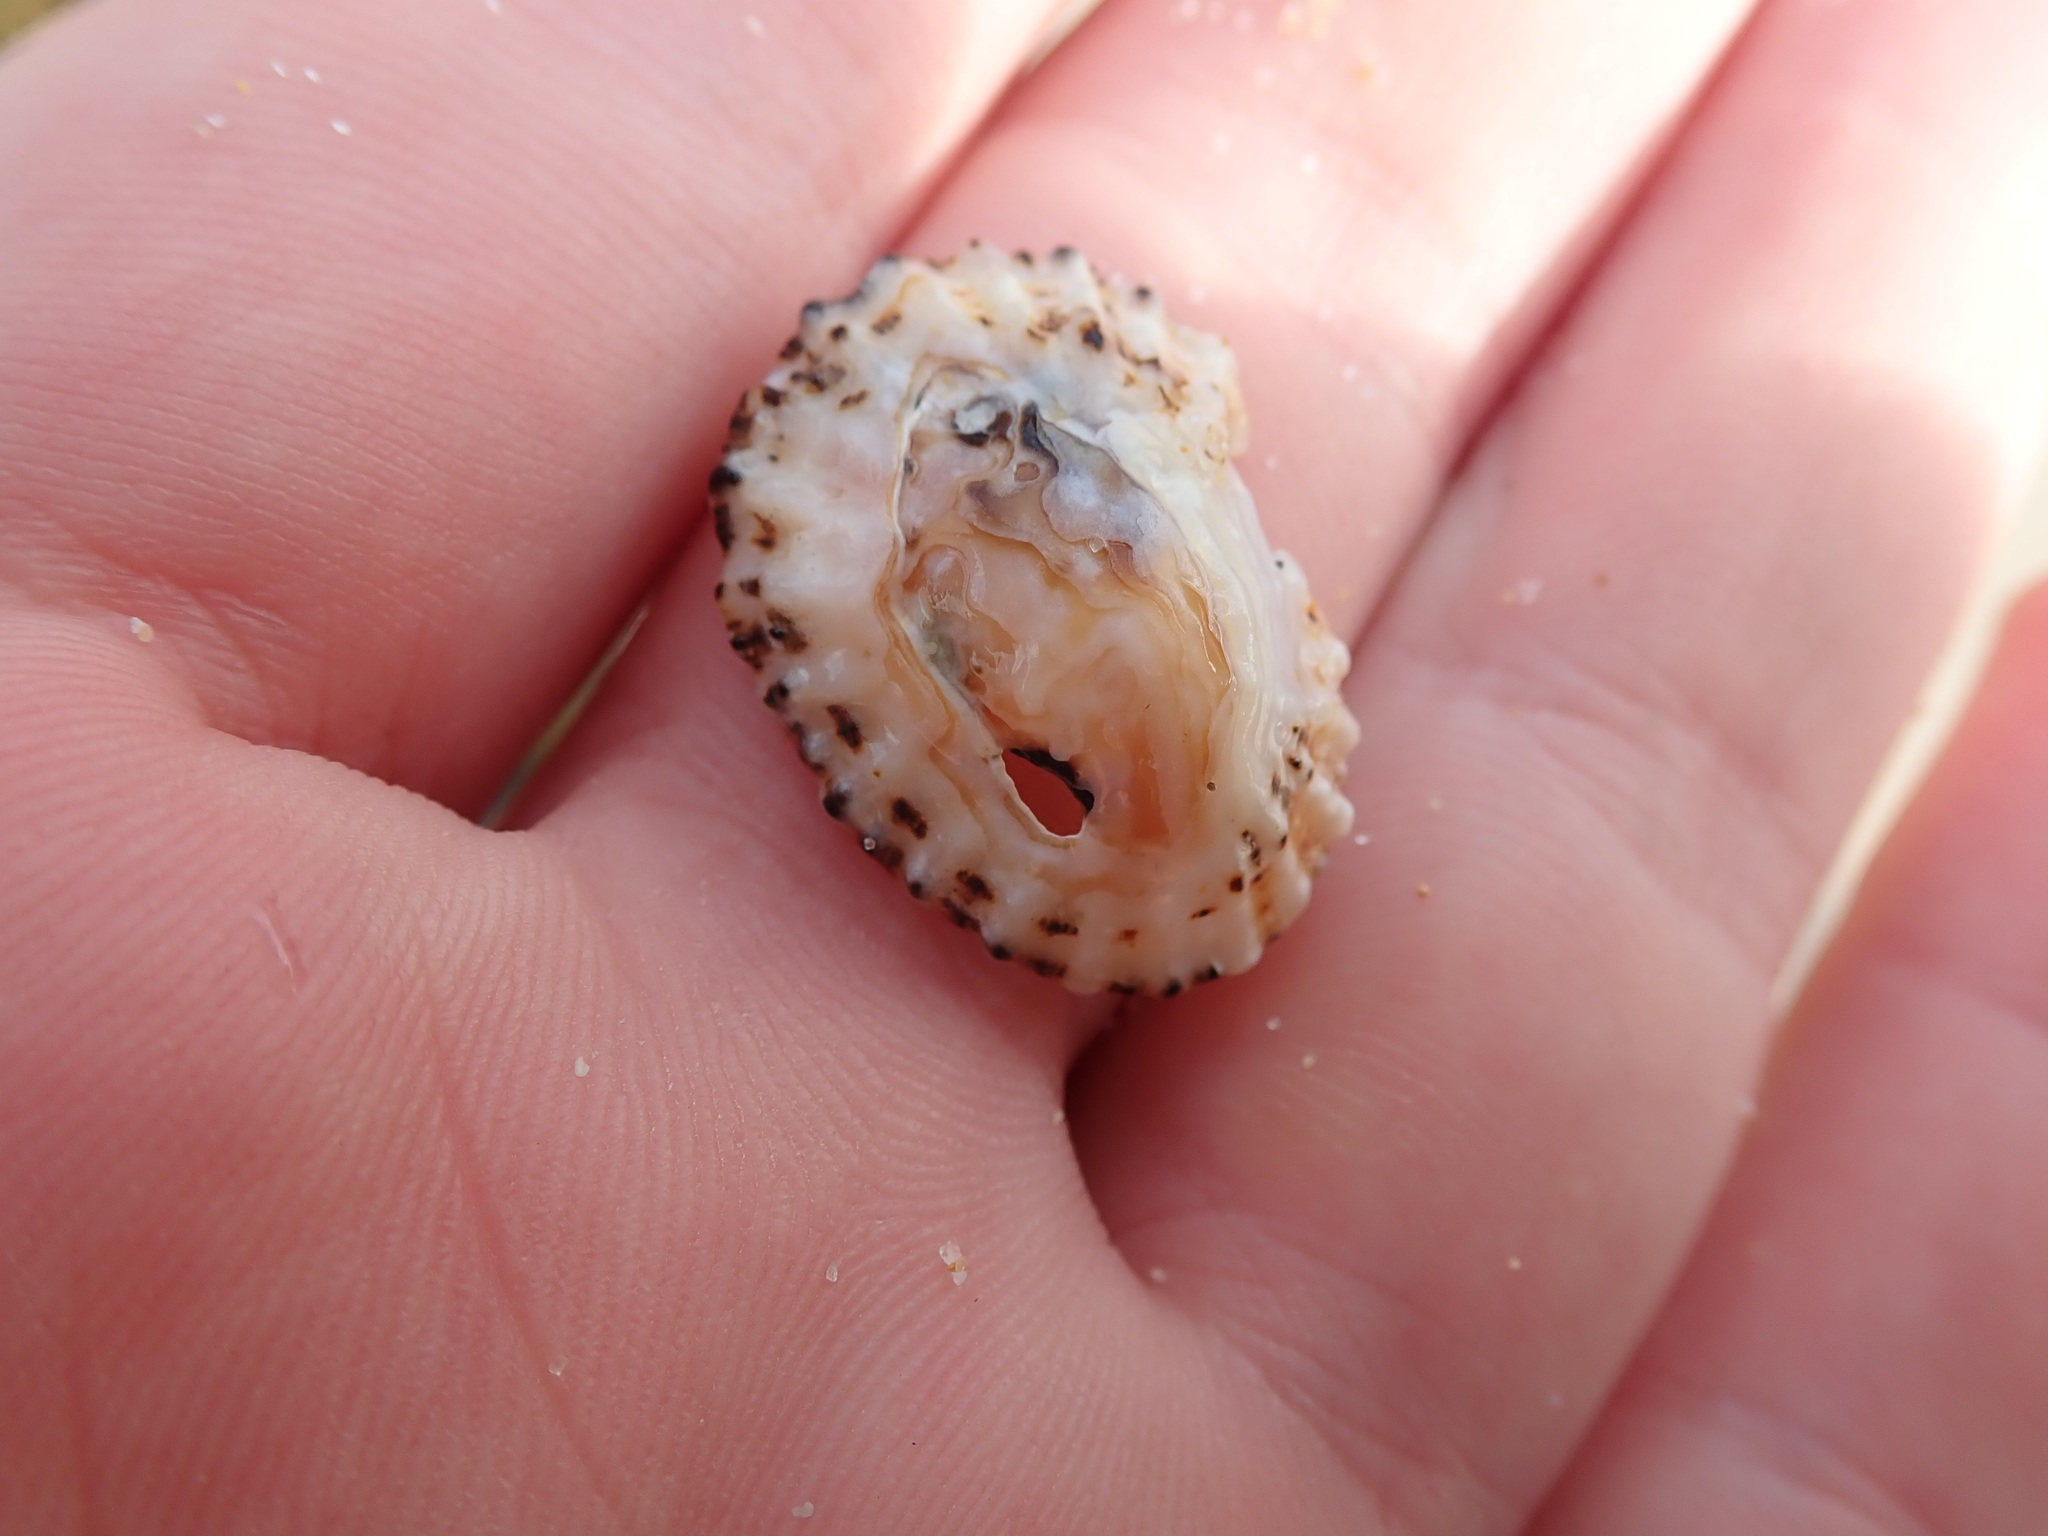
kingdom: Animalia
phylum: Mollusca
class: Gastropoda
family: Patellidae
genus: Scutellastra
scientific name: Scutellastra peronii
